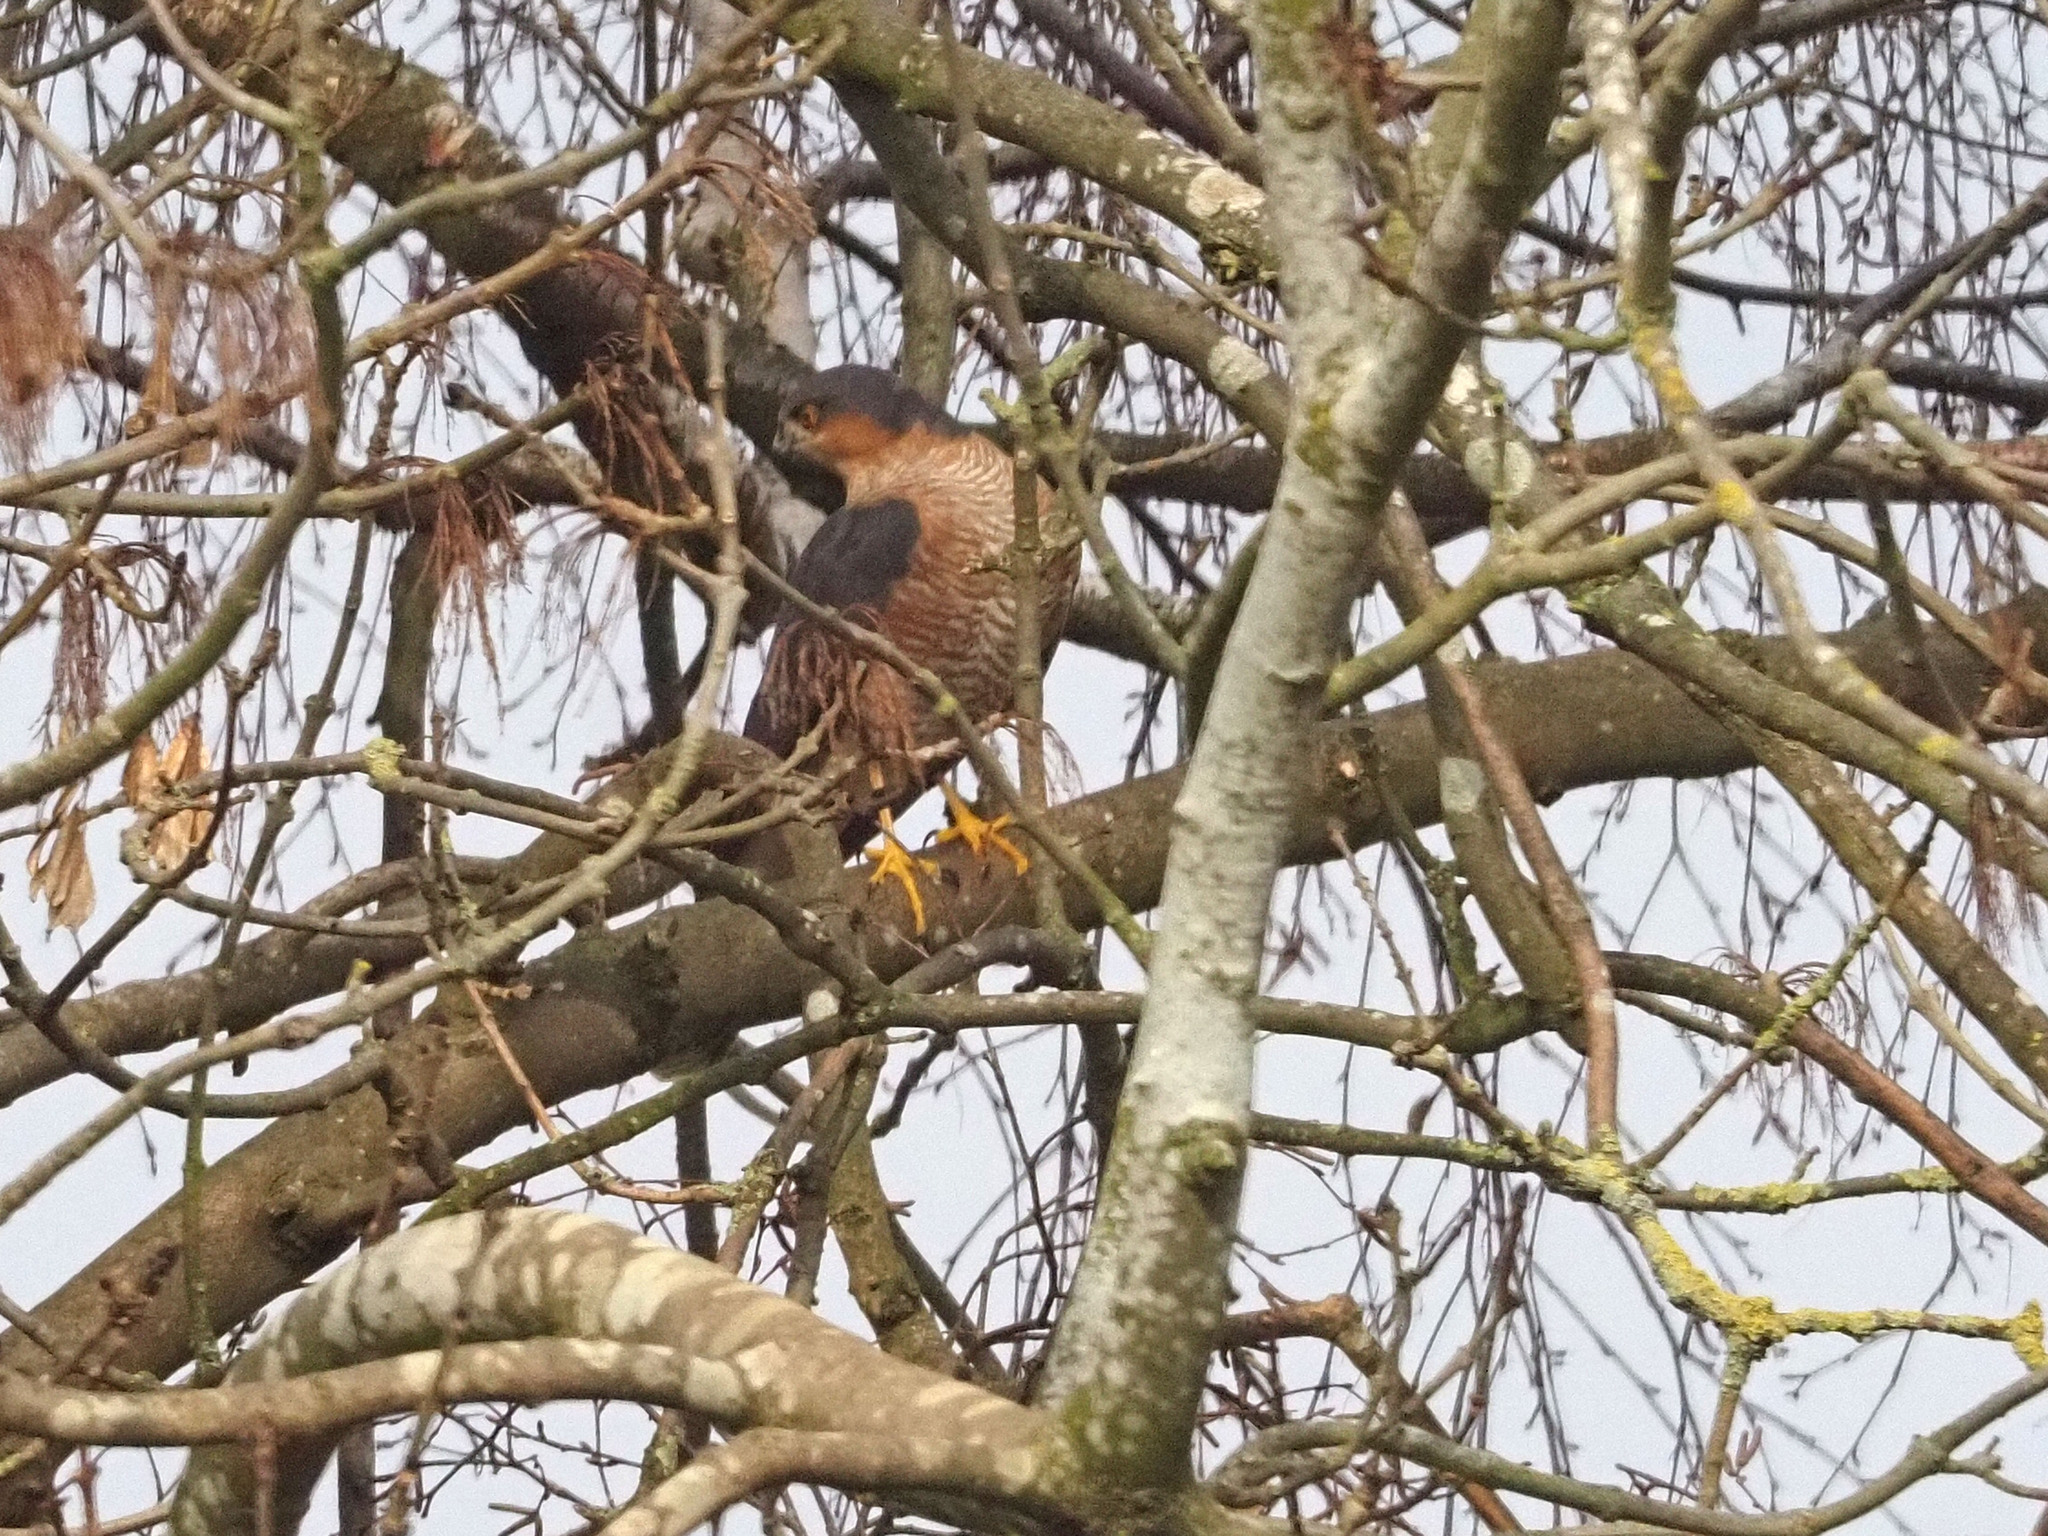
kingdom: Animalia
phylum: Chordata
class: Aves
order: Accipitriformes
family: Accipitridae
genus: Accipiter
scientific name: Accipiter nisus
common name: Eurasian sparrowhawk
